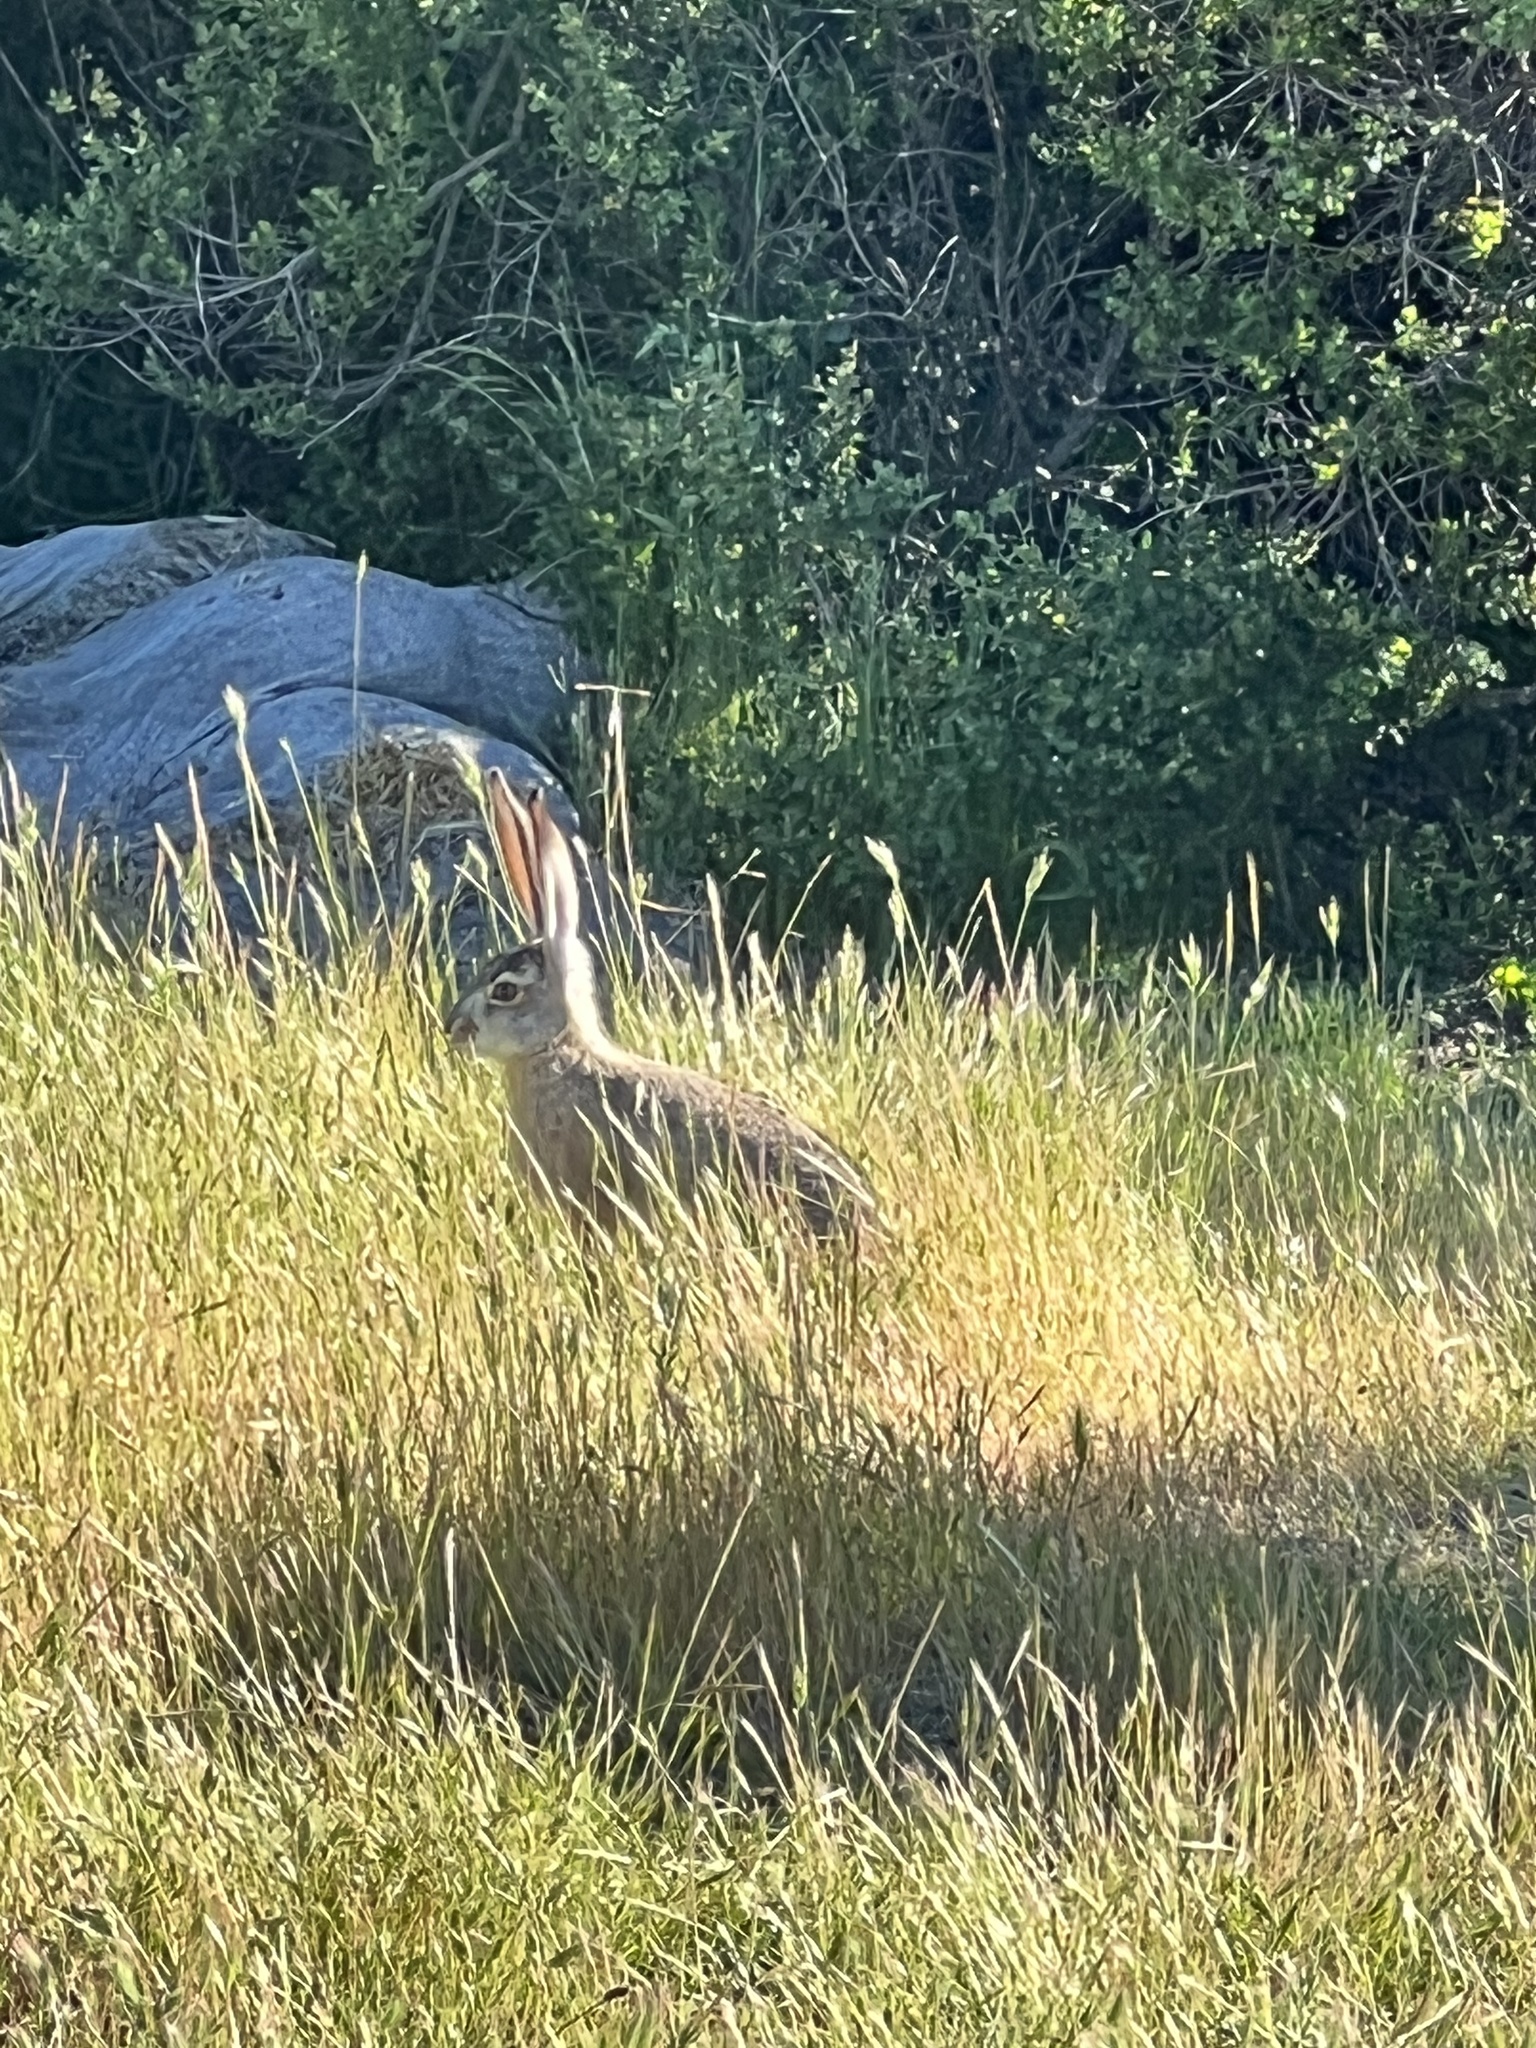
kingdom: Animalia
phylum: Chordata
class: Mammalia
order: Lagomorpha
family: Leporidae
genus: Lepus
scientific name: Lepus californicus
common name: Black-tailed jackrabbit
